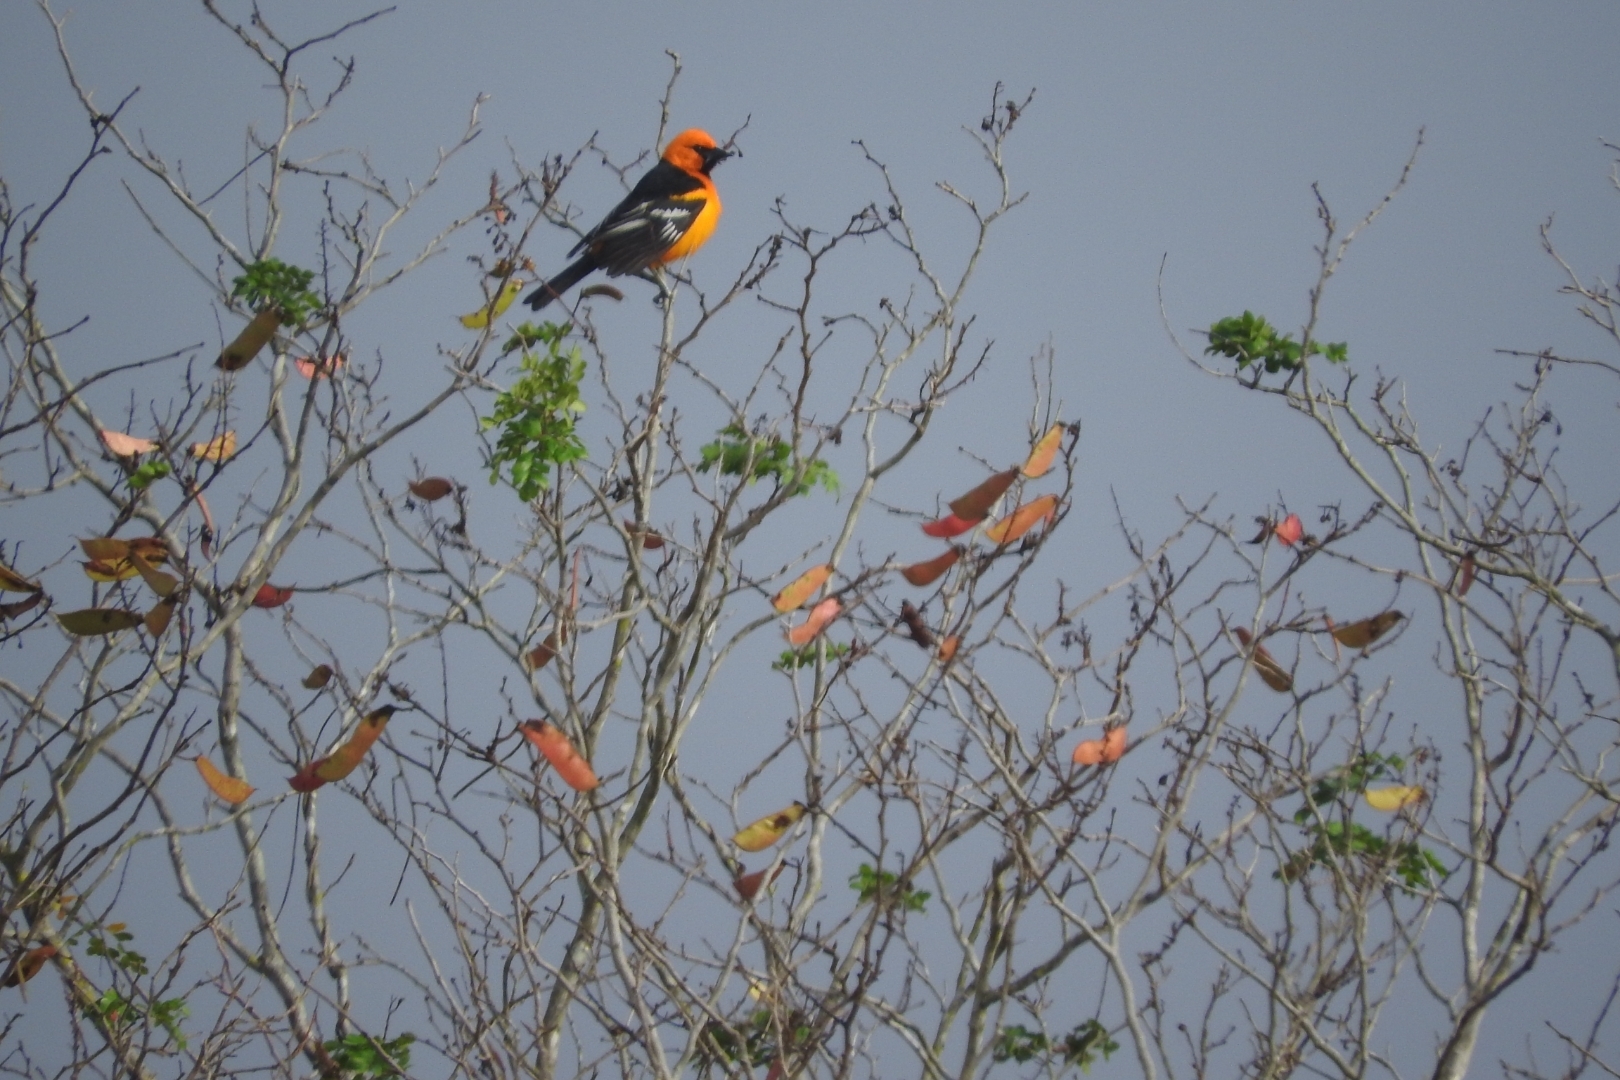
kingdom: Animalia
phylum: Chordata
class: Aves
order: Passeriformes
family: Icteridae
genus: Icterus
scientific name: Icterus gularis
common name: Altamira oriole
